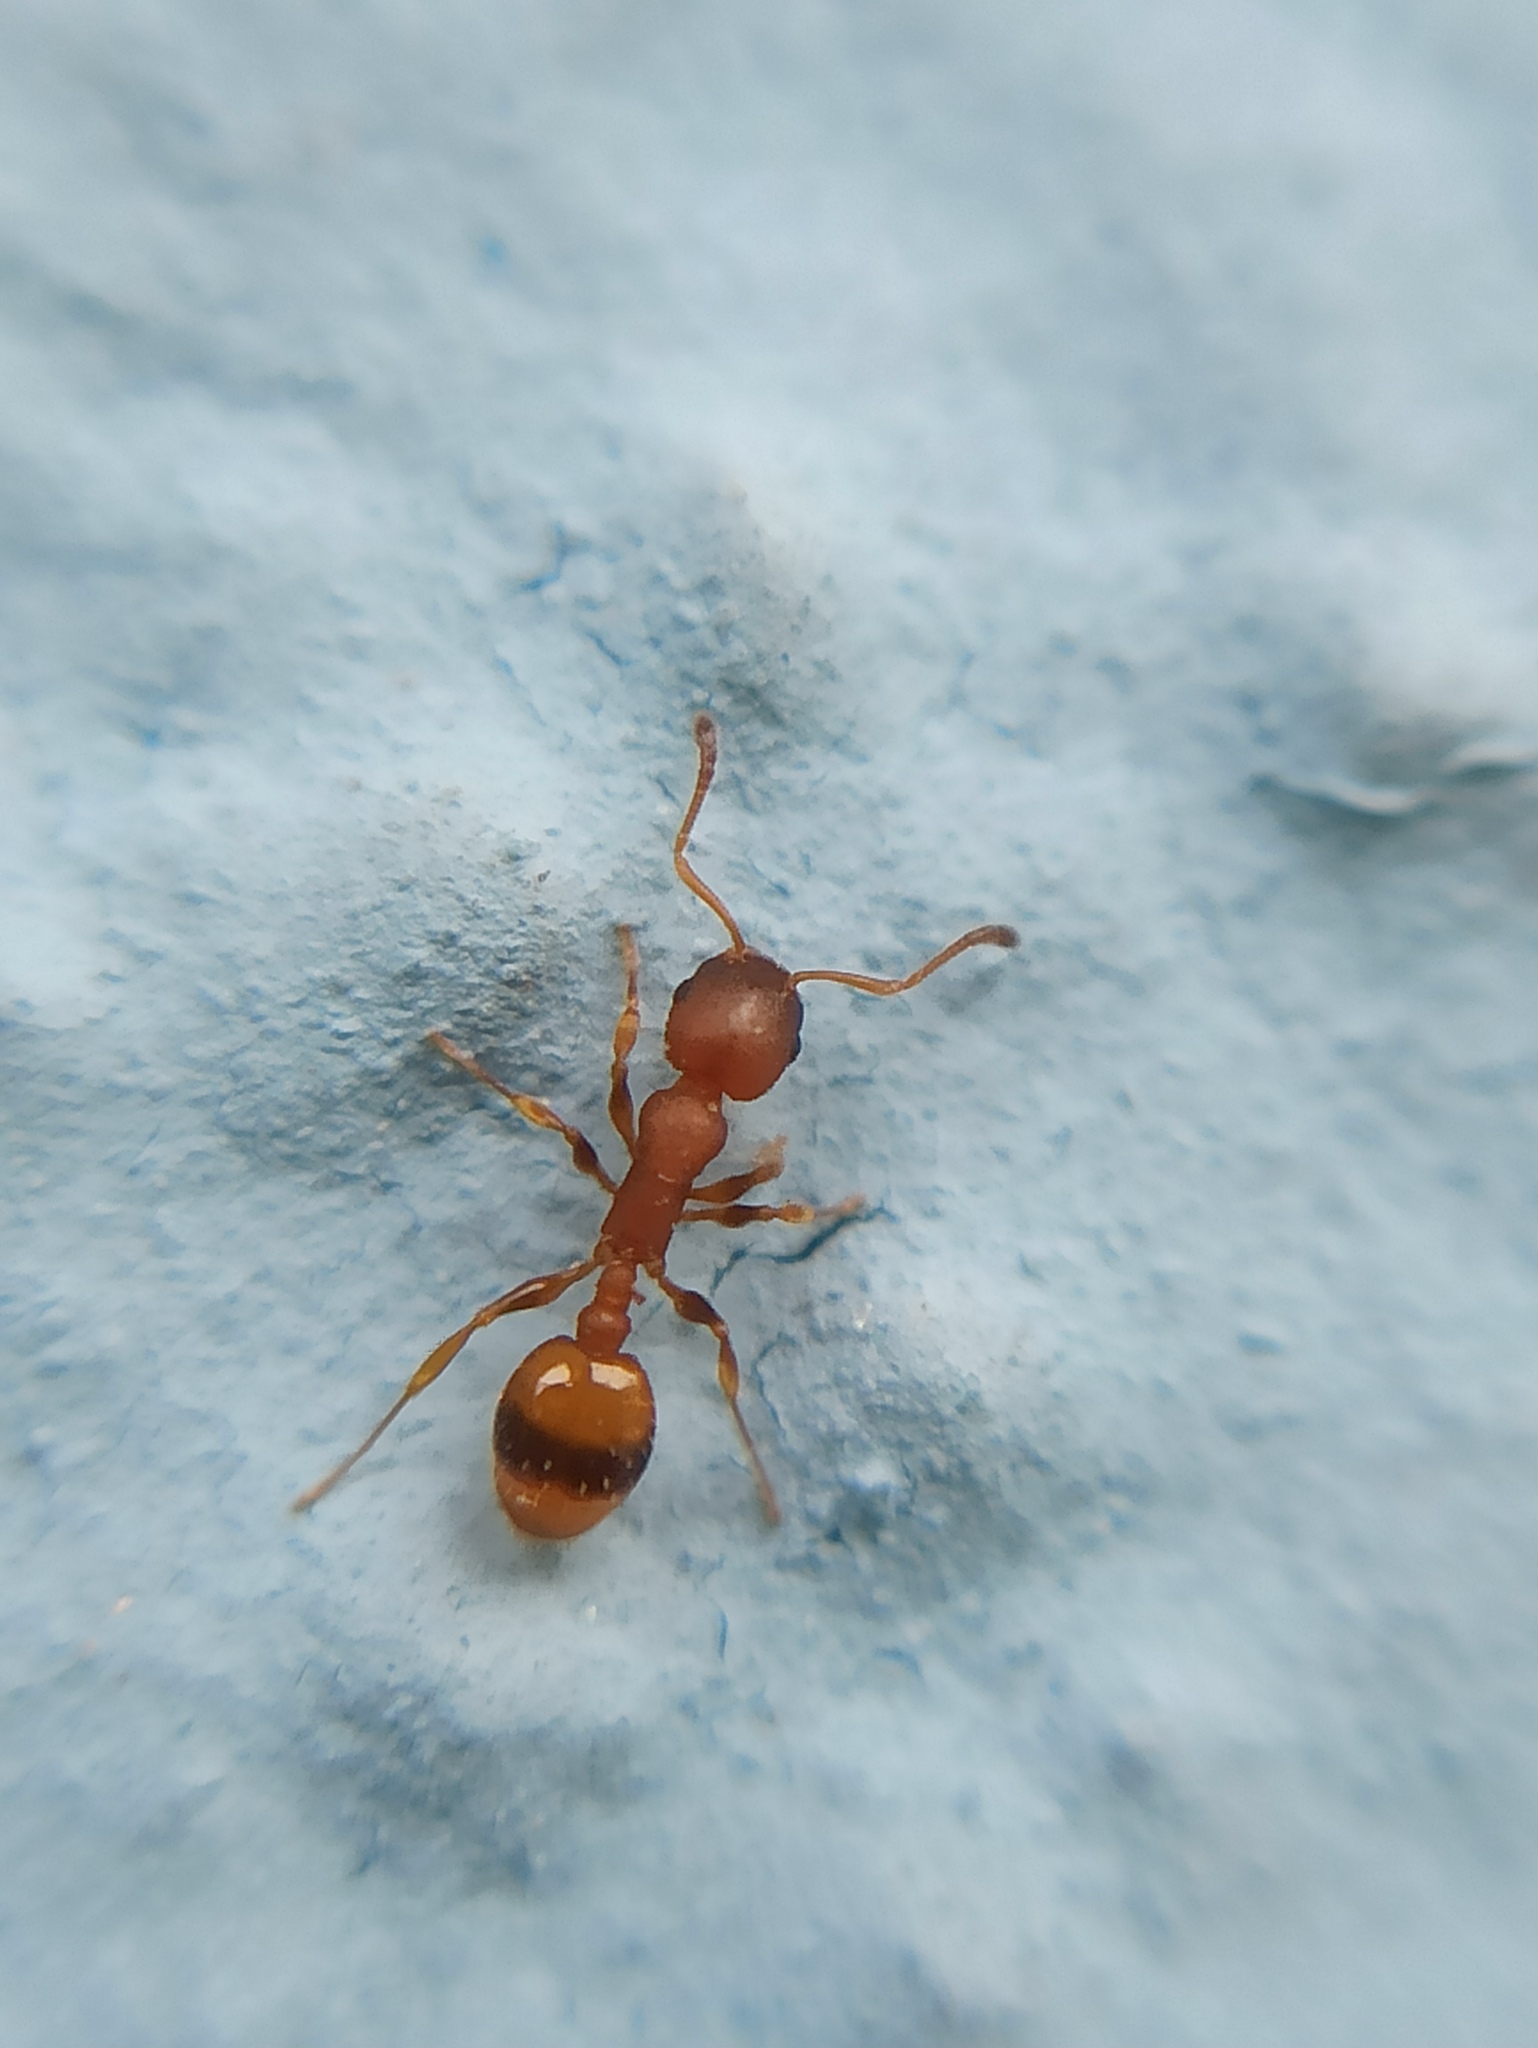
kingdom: Animalia
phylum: Arthropoda
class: Insecta
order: Hymenoptera
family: Formicidae
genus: Leptothorax
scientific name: Leptothorax unifasciatus
